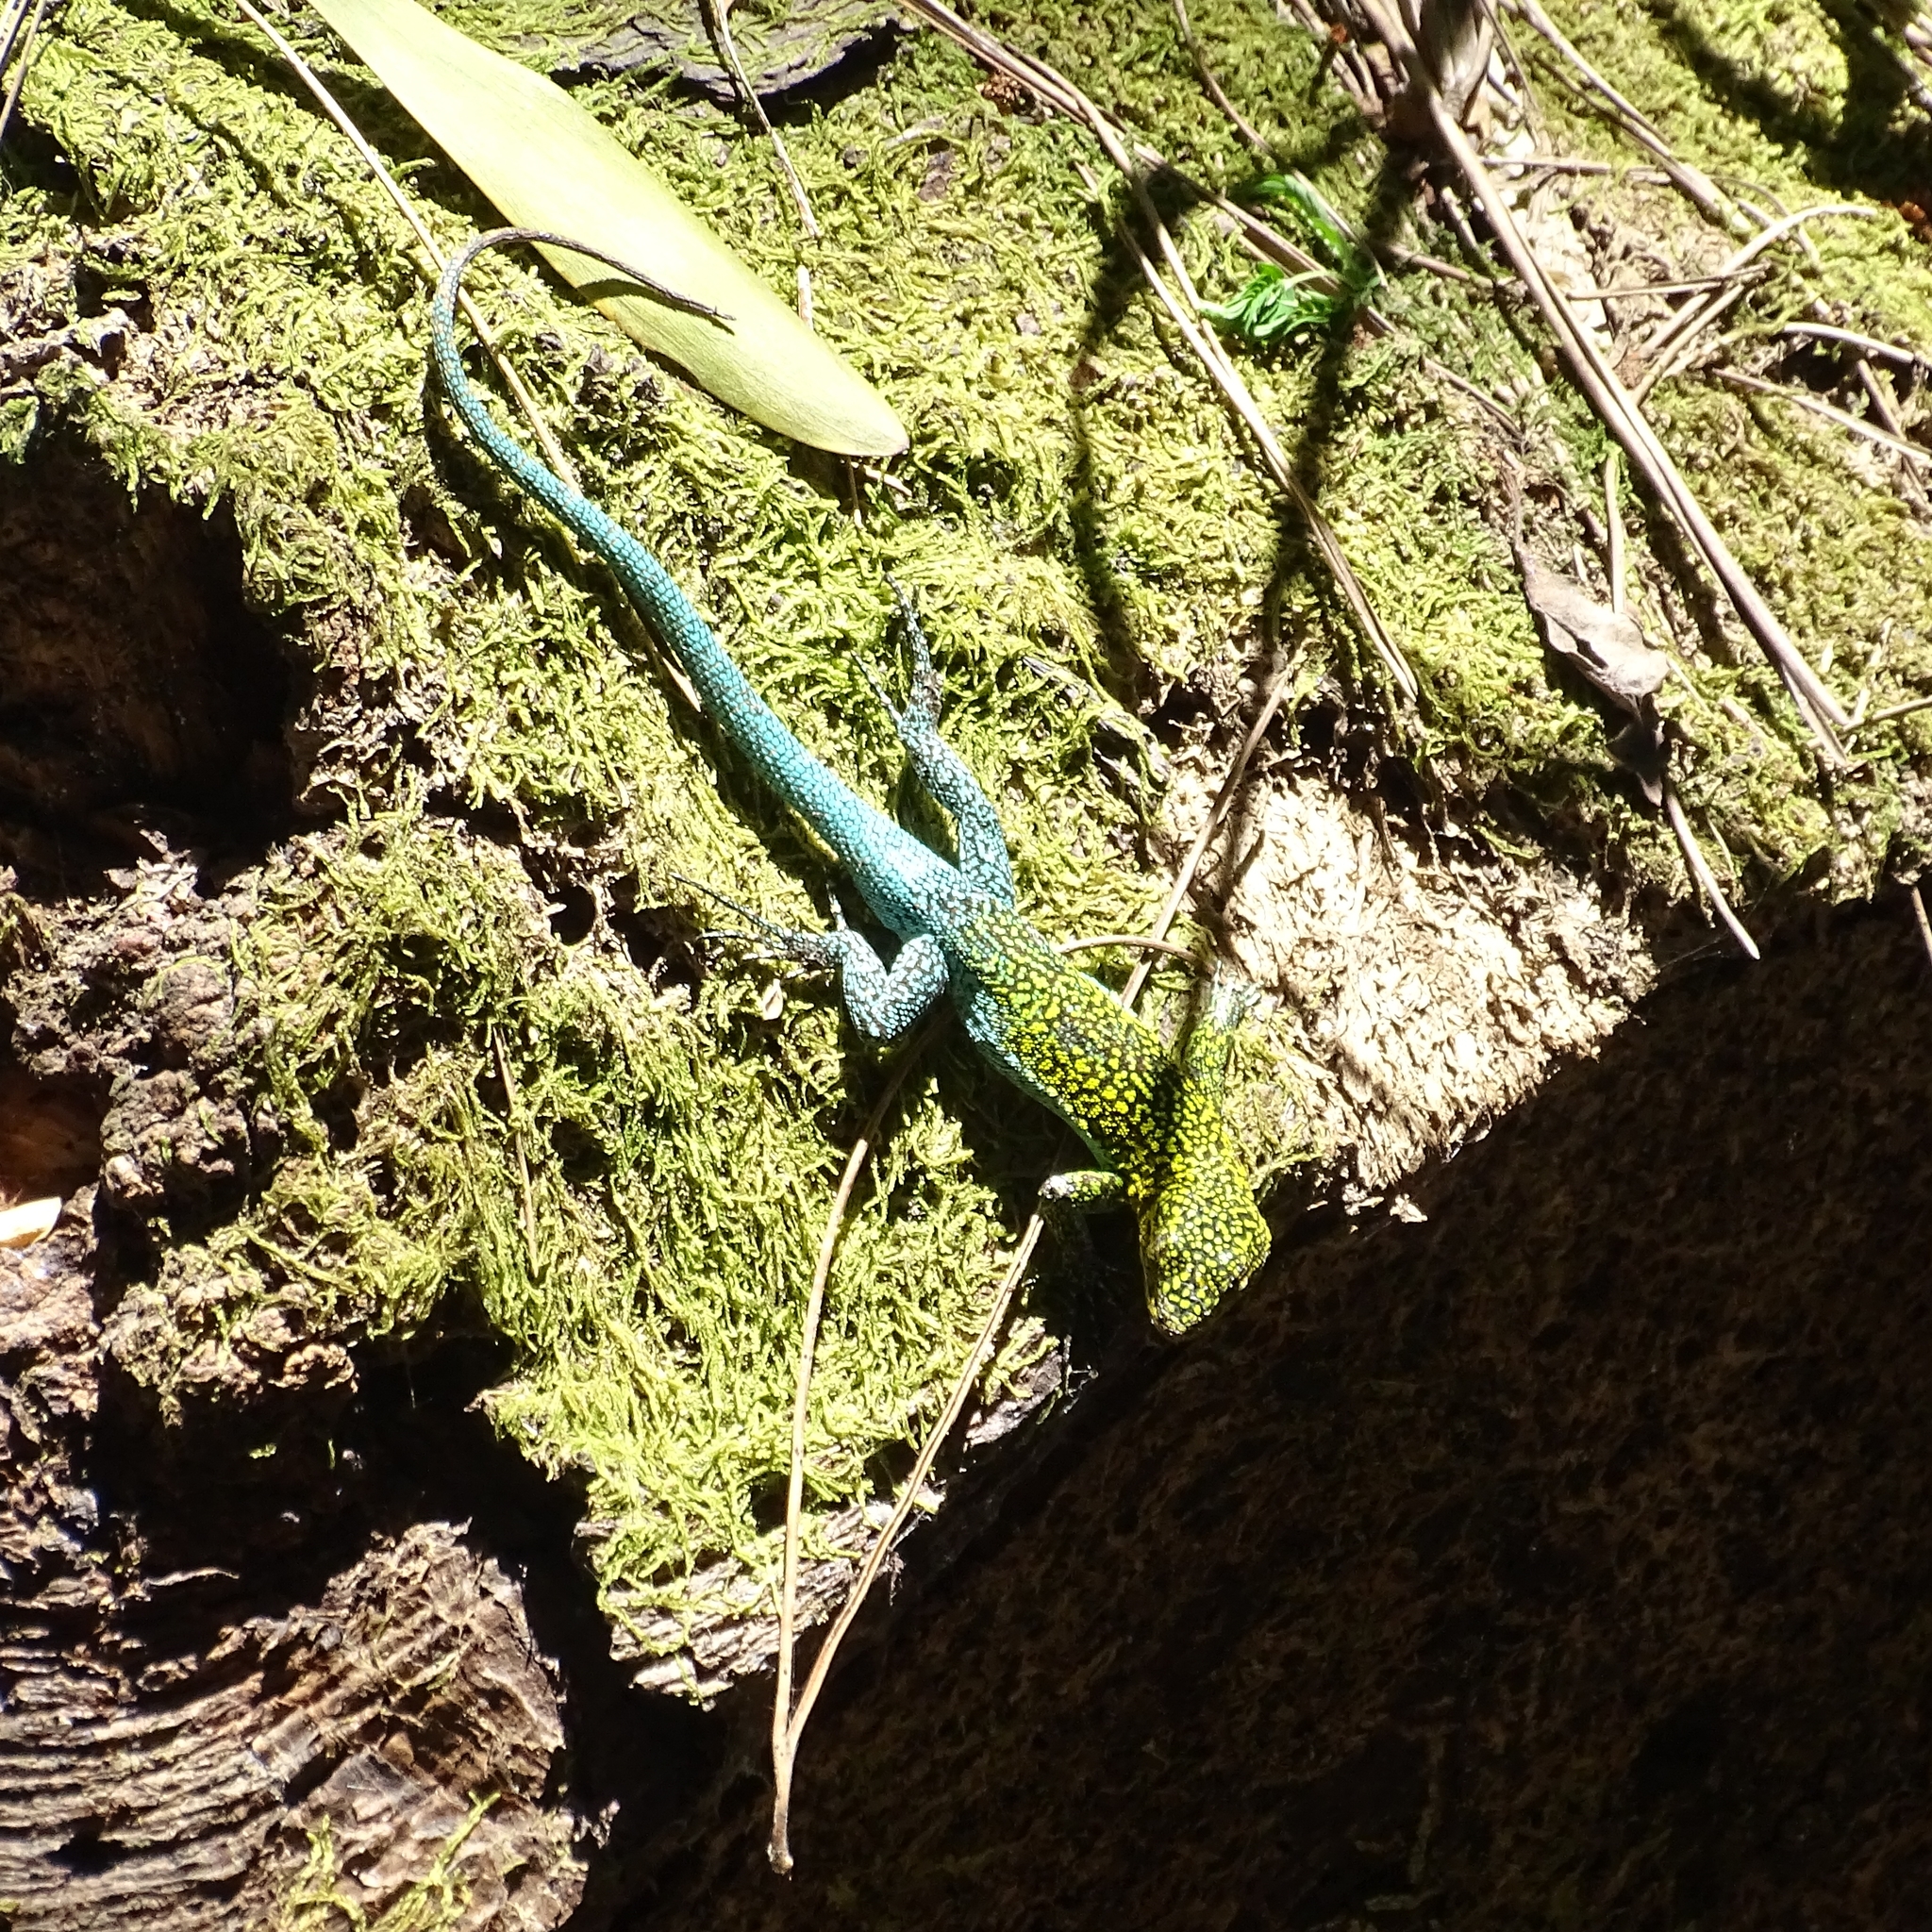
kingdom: Animalia
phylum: Chordata
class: Squamata
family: Liolaemidae
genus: Liolaemus
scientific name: Liolaemus tenuis
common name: Thin tree iguana
